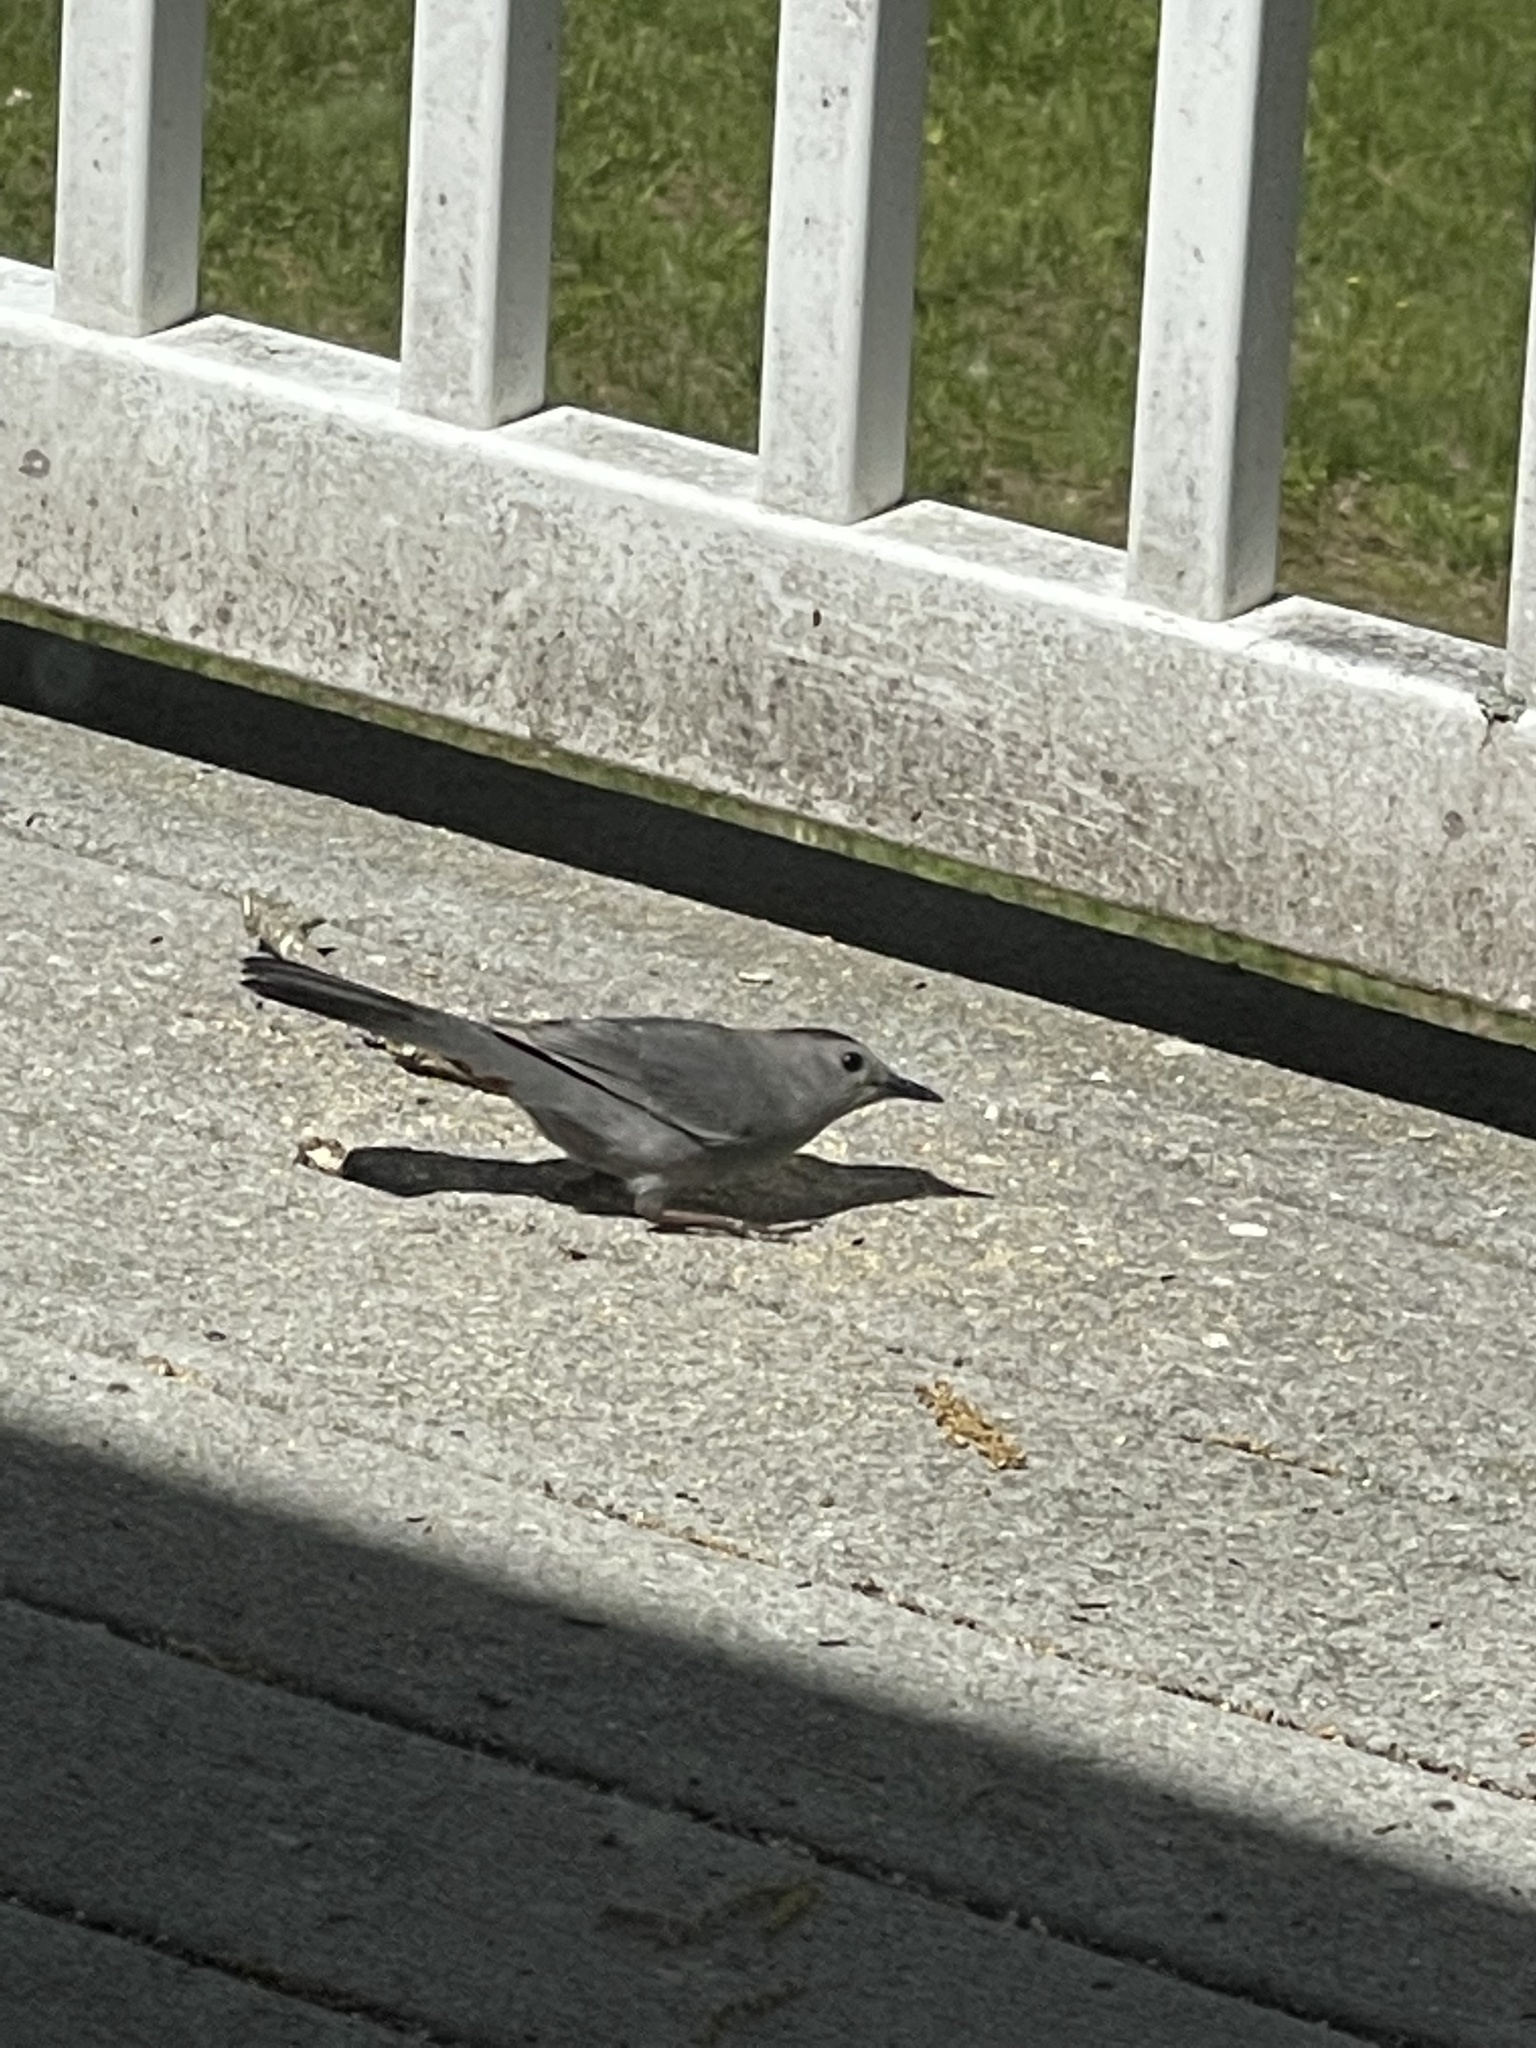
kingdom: Animalia
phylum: Chordata
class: Aves
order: Passeriformes
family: Mimidae
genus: Dumetella
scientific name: Dumetella carolinensis
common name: Gray catbird
